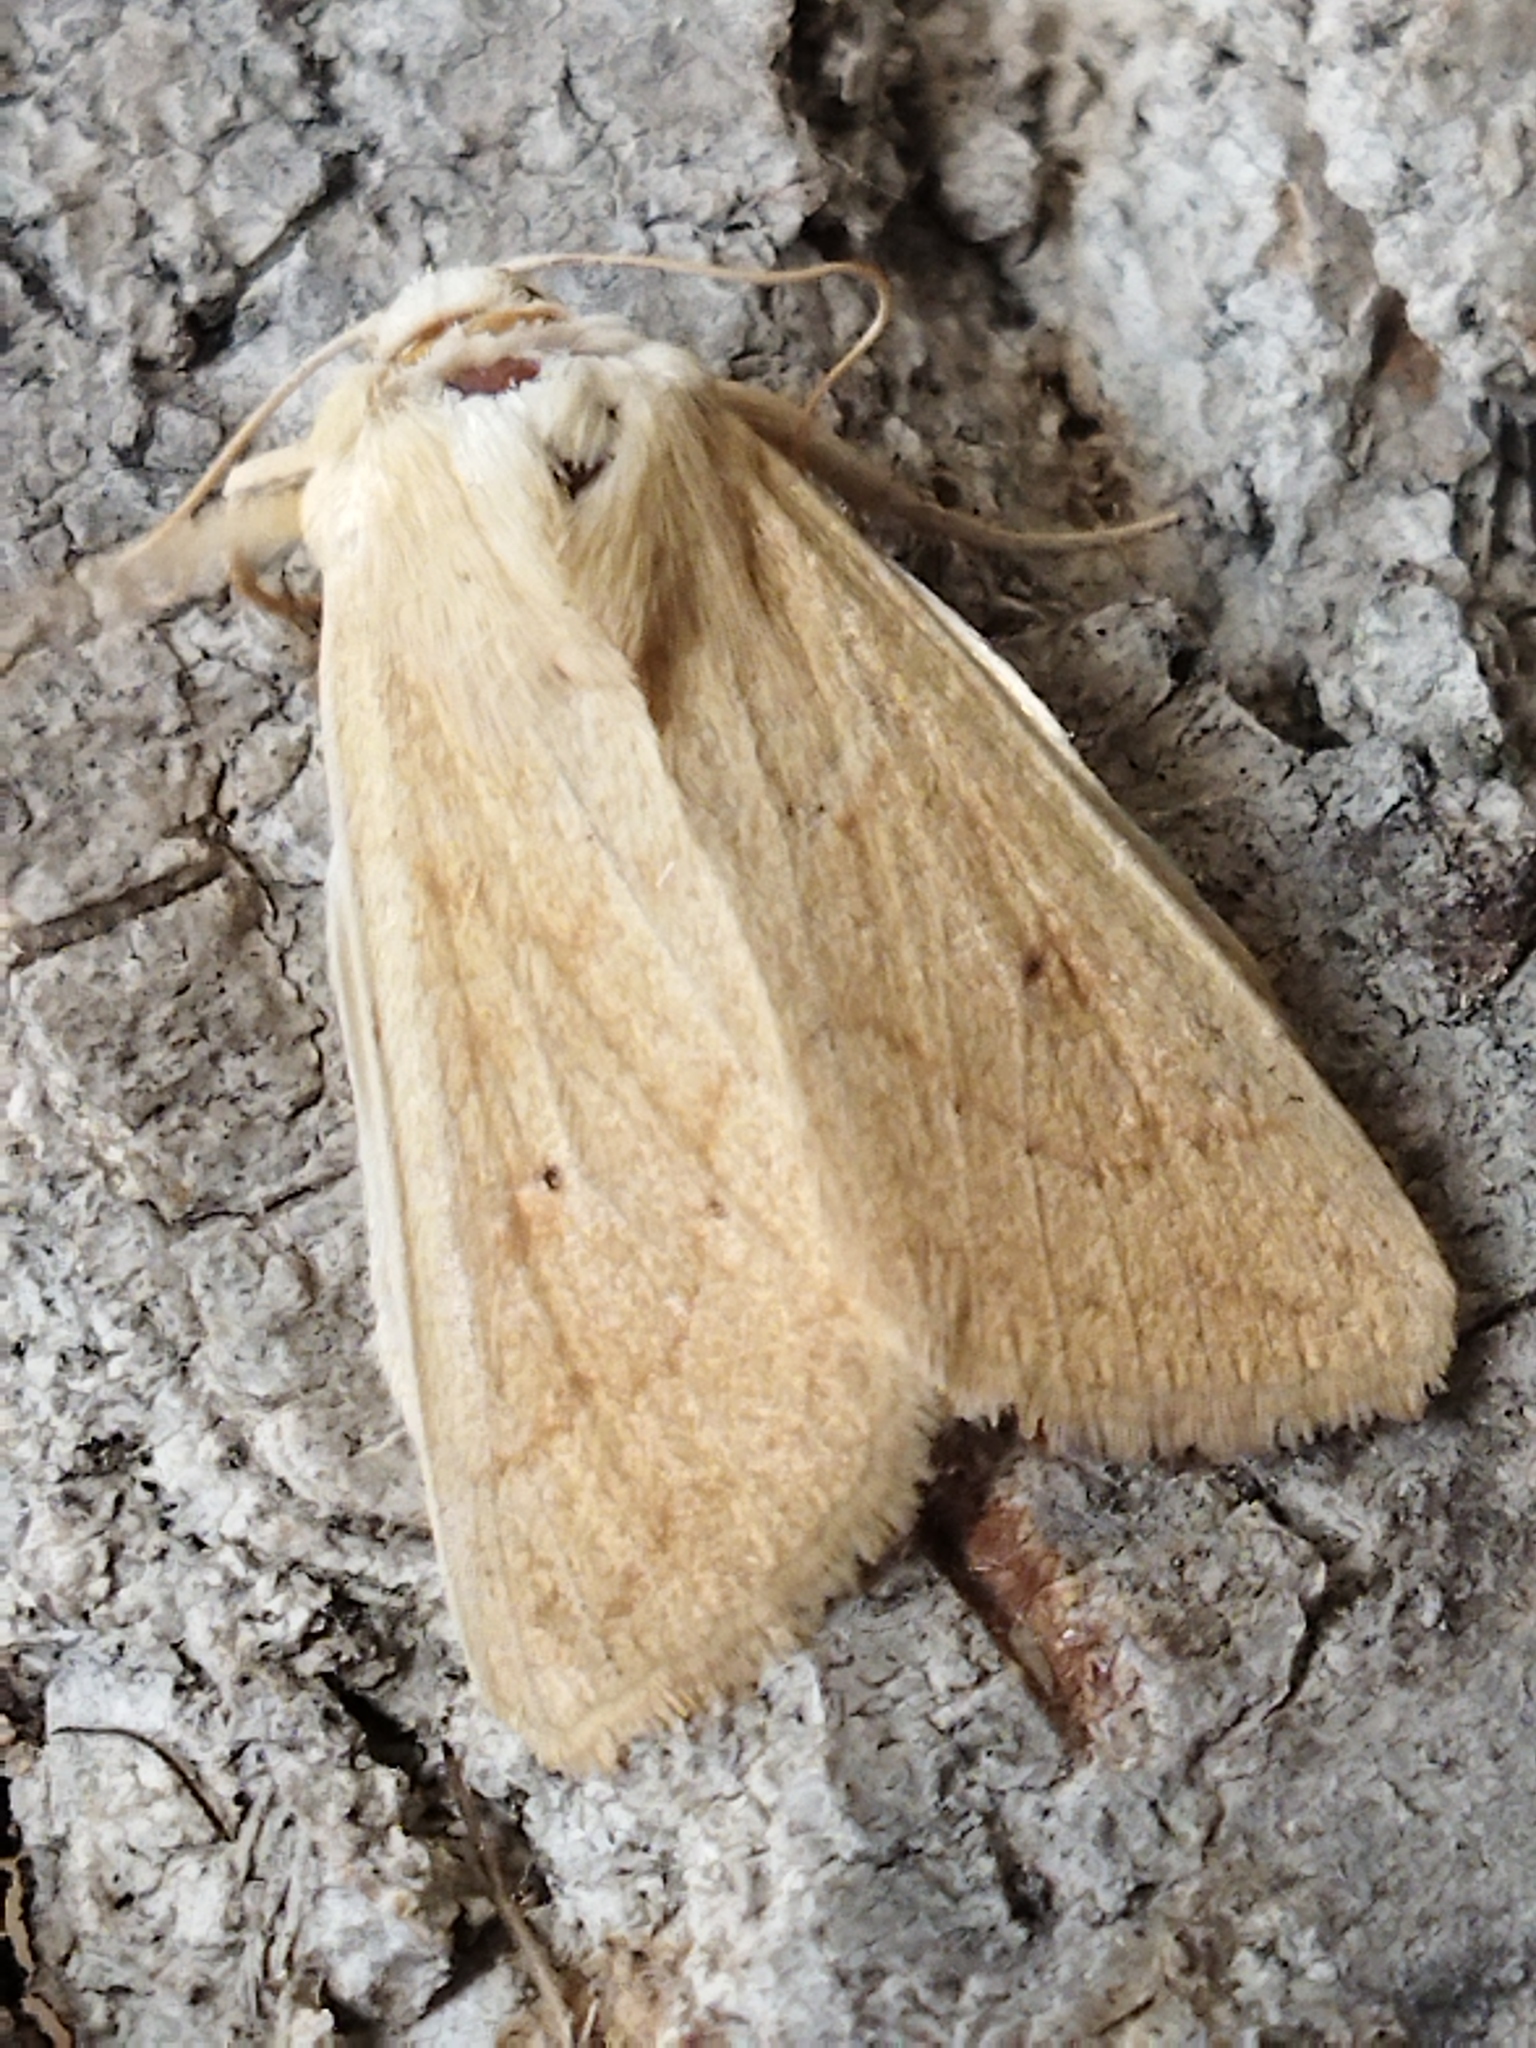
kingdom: Animalia
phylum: Arthropoda
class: Insecta
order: Lepidoptera
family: Noctuidae
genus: Mythimna
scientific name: Mythimna vitellina
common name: Delicate
